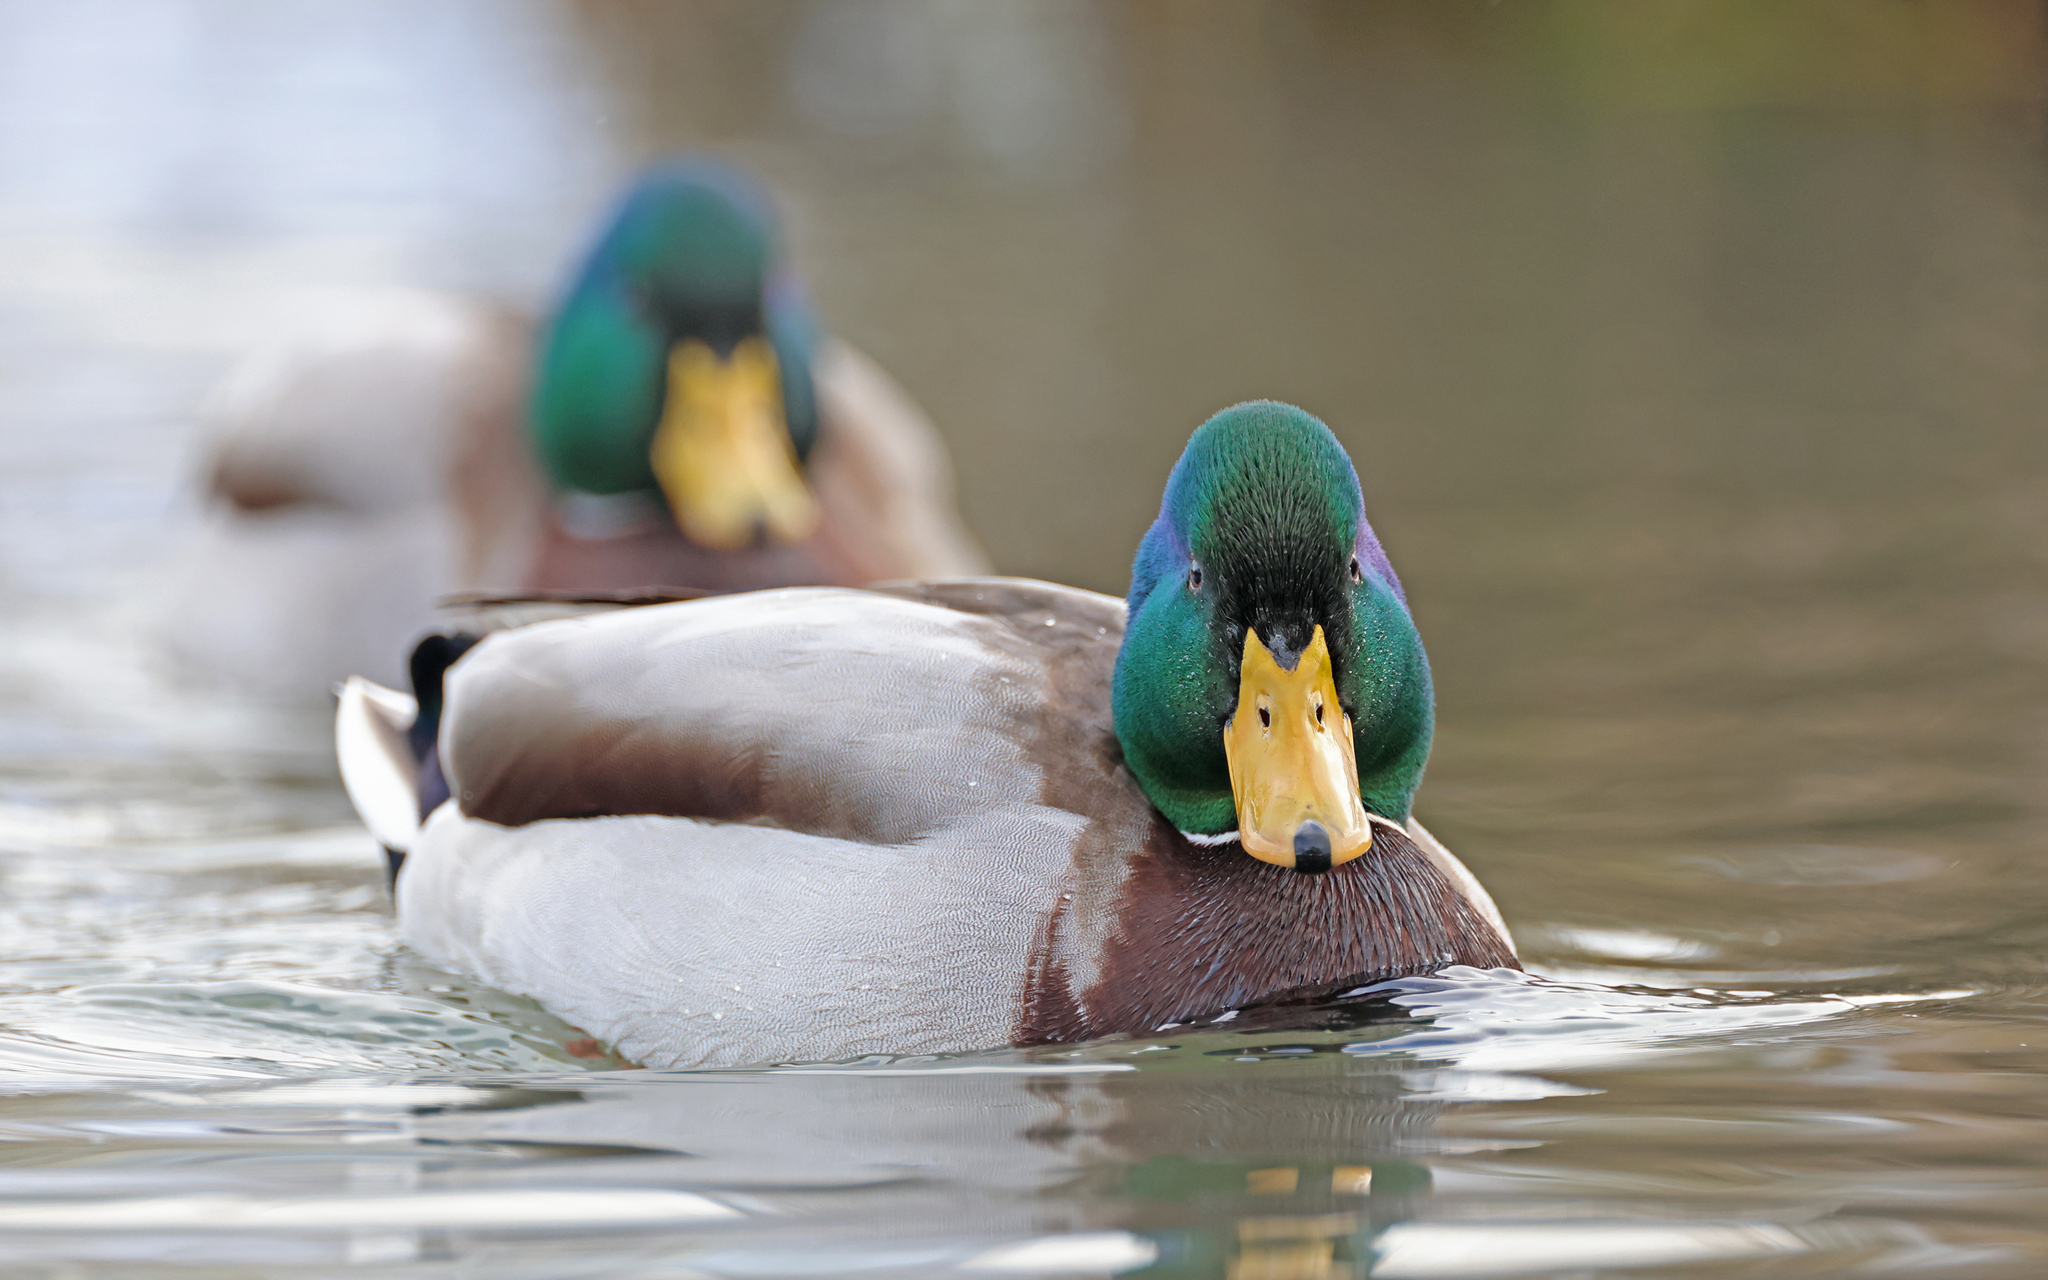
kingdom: Animalia
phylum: Chordata
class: Aves
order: Anseriformes
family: Anatidae
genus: Anas
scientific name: Anas platyrhynchos
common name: Mallard
